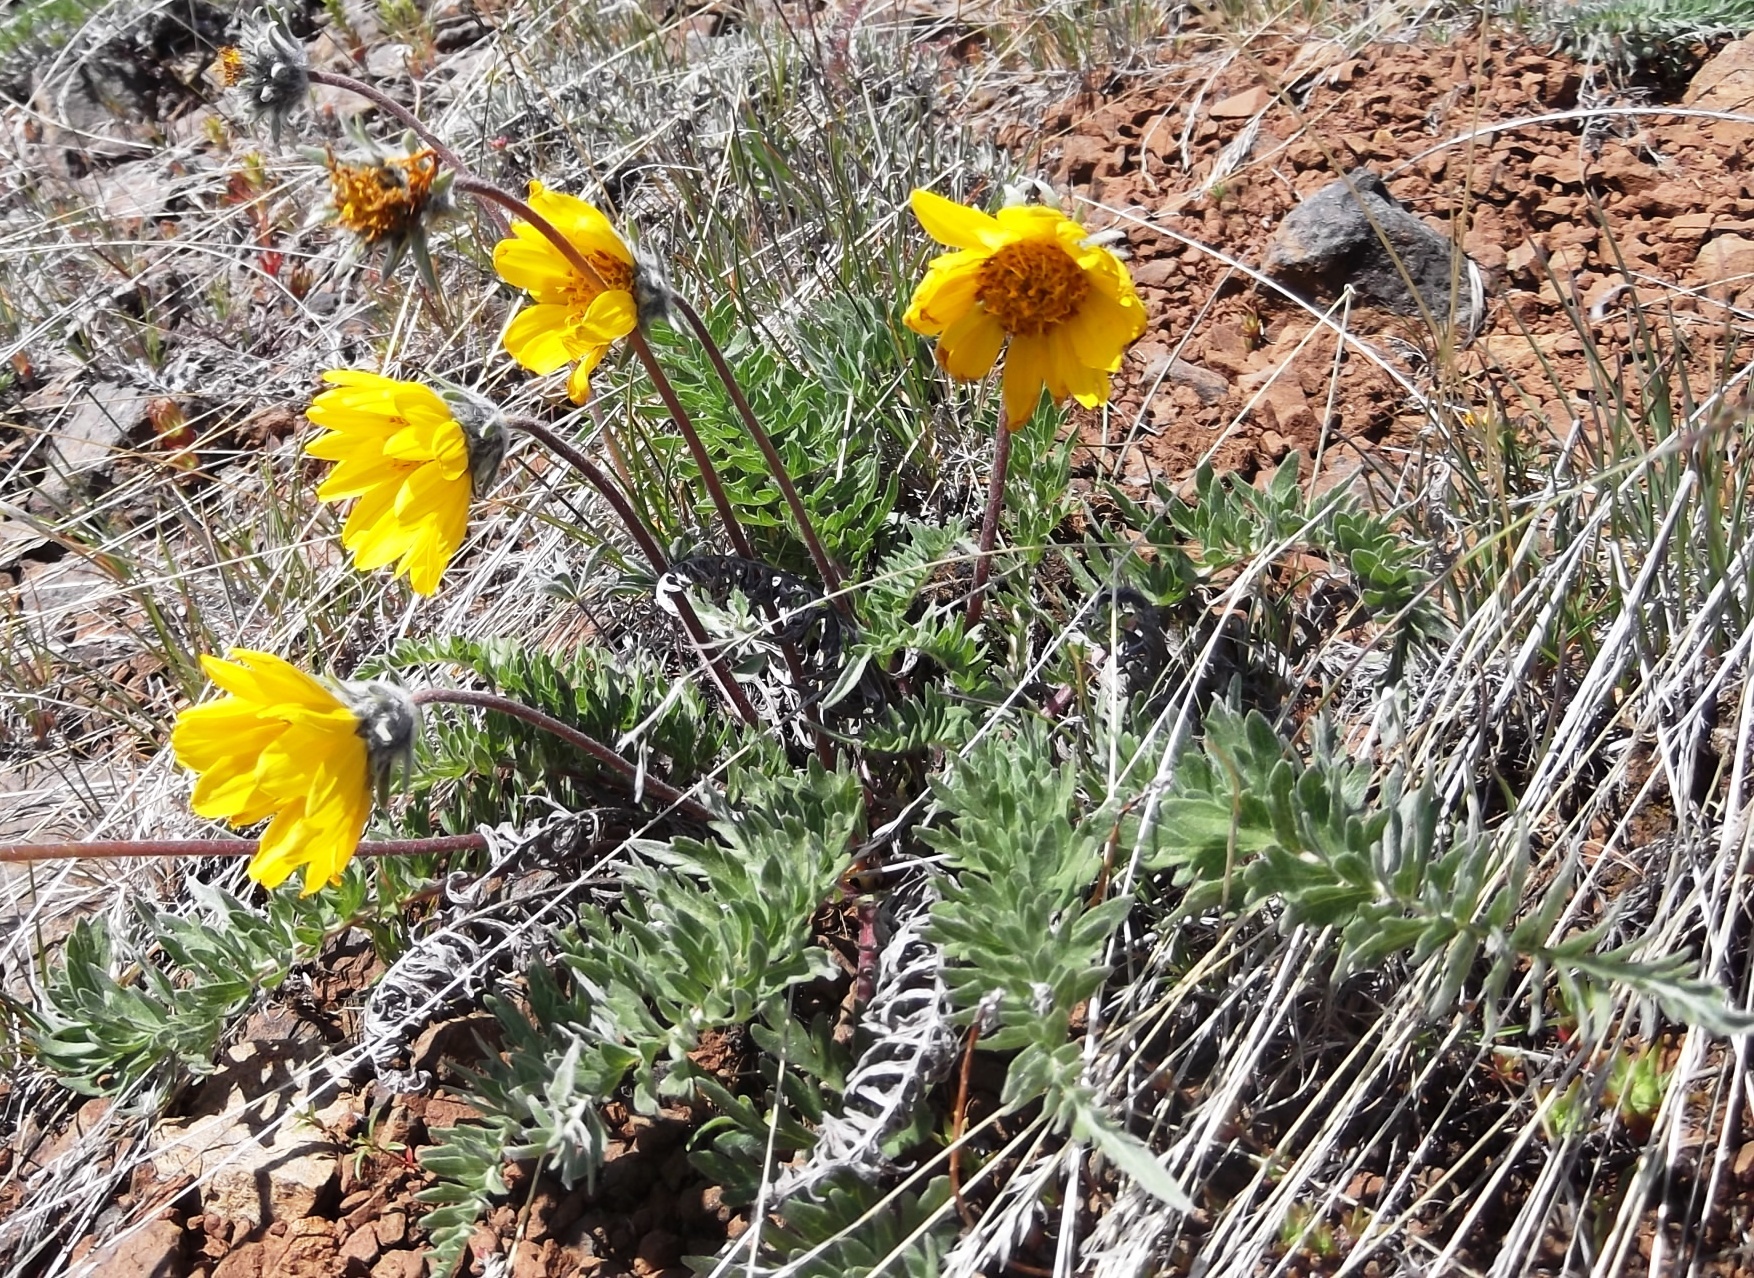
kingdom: Plantae
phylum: Tracheophyta
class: Magnoliopsida
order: Asterales
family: Asteraceae
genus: Balsamorhiza
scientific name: Balsamorhiza hookeri
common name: Hooker's balsamroot
